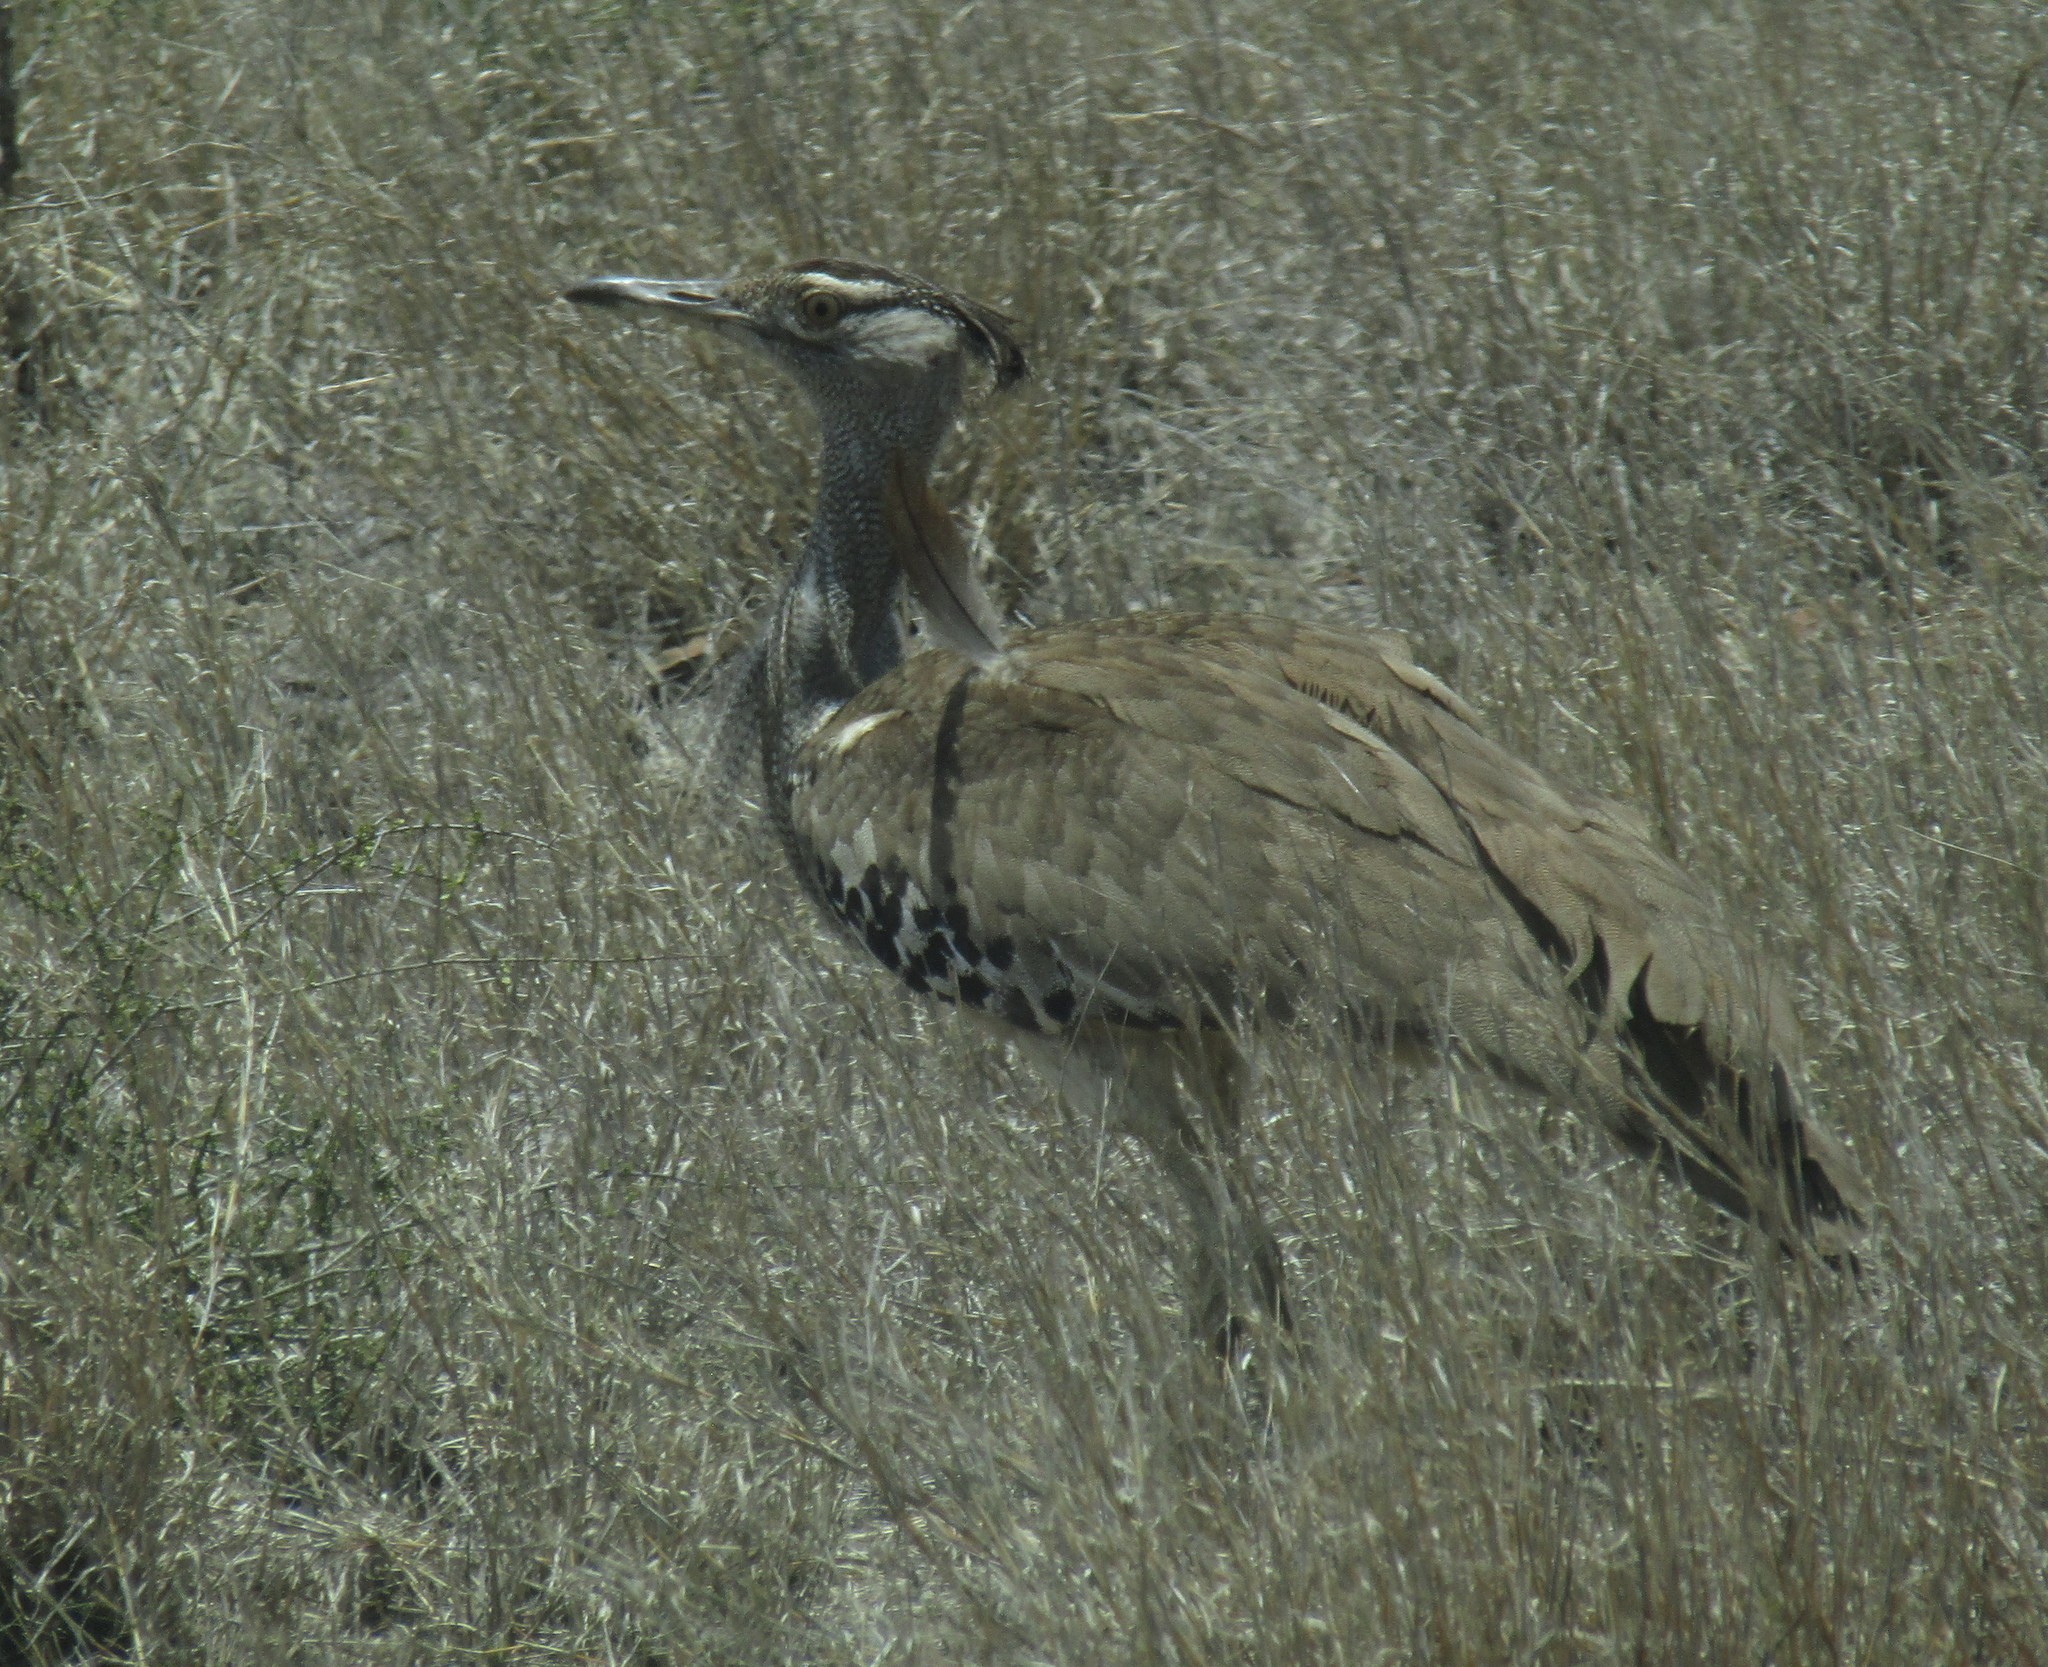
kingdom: Animalia
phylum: Chordata
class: Aves
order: Otidiformes
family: Otididae
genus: Ardeotis
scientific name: Ardeotis kori
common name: Kori bustard
